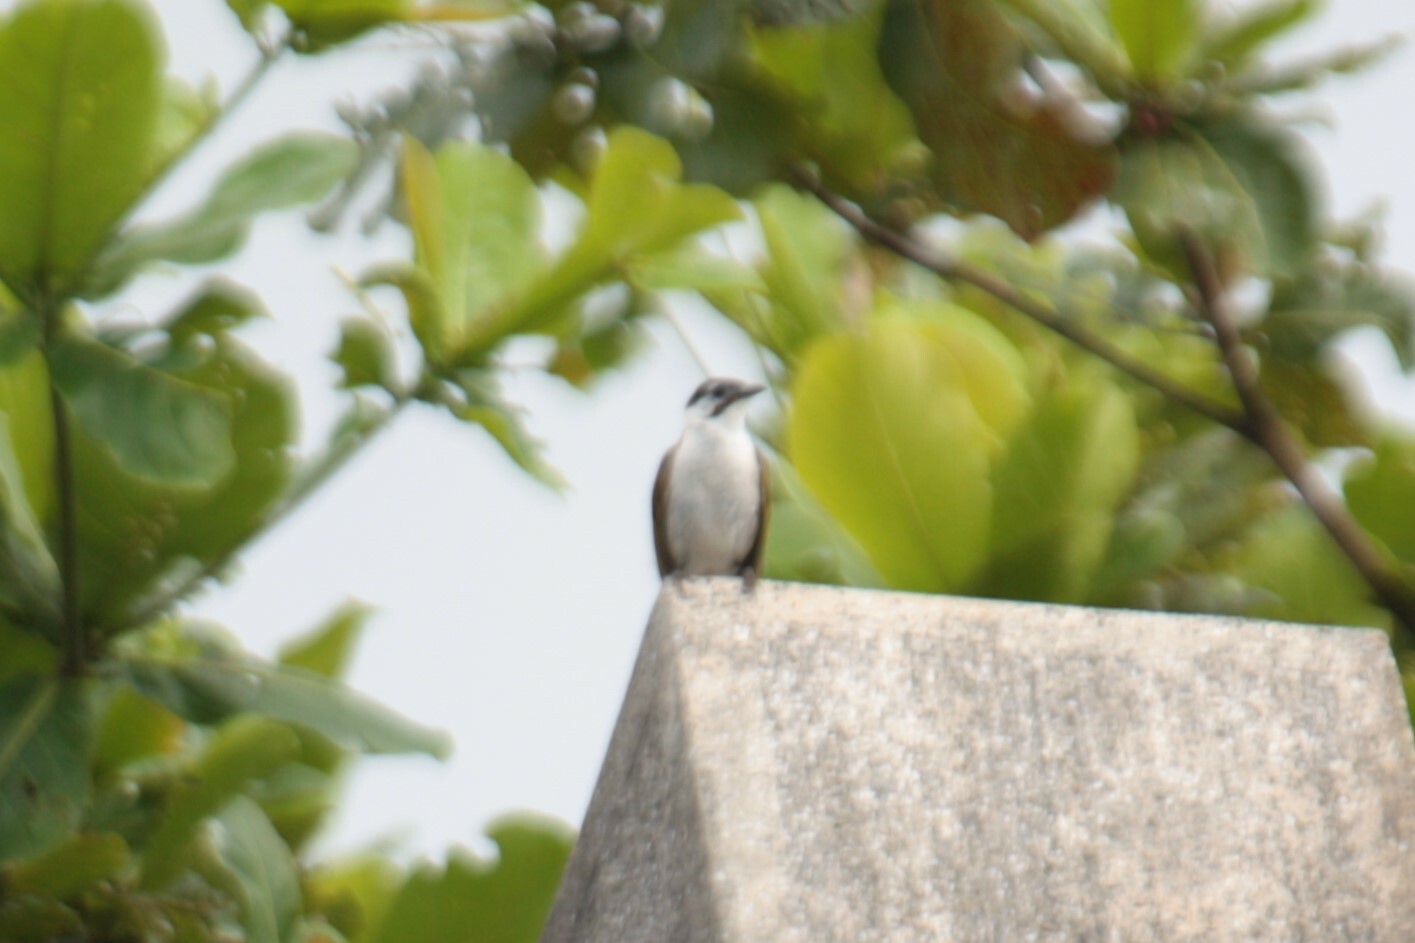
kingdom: Animalia
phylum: Chordata
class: Aves
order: Passeriformes
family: Pycnonotidae
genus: Pycnonotus
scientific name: Pycnonotus taivanus
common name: Styan's bulbul
